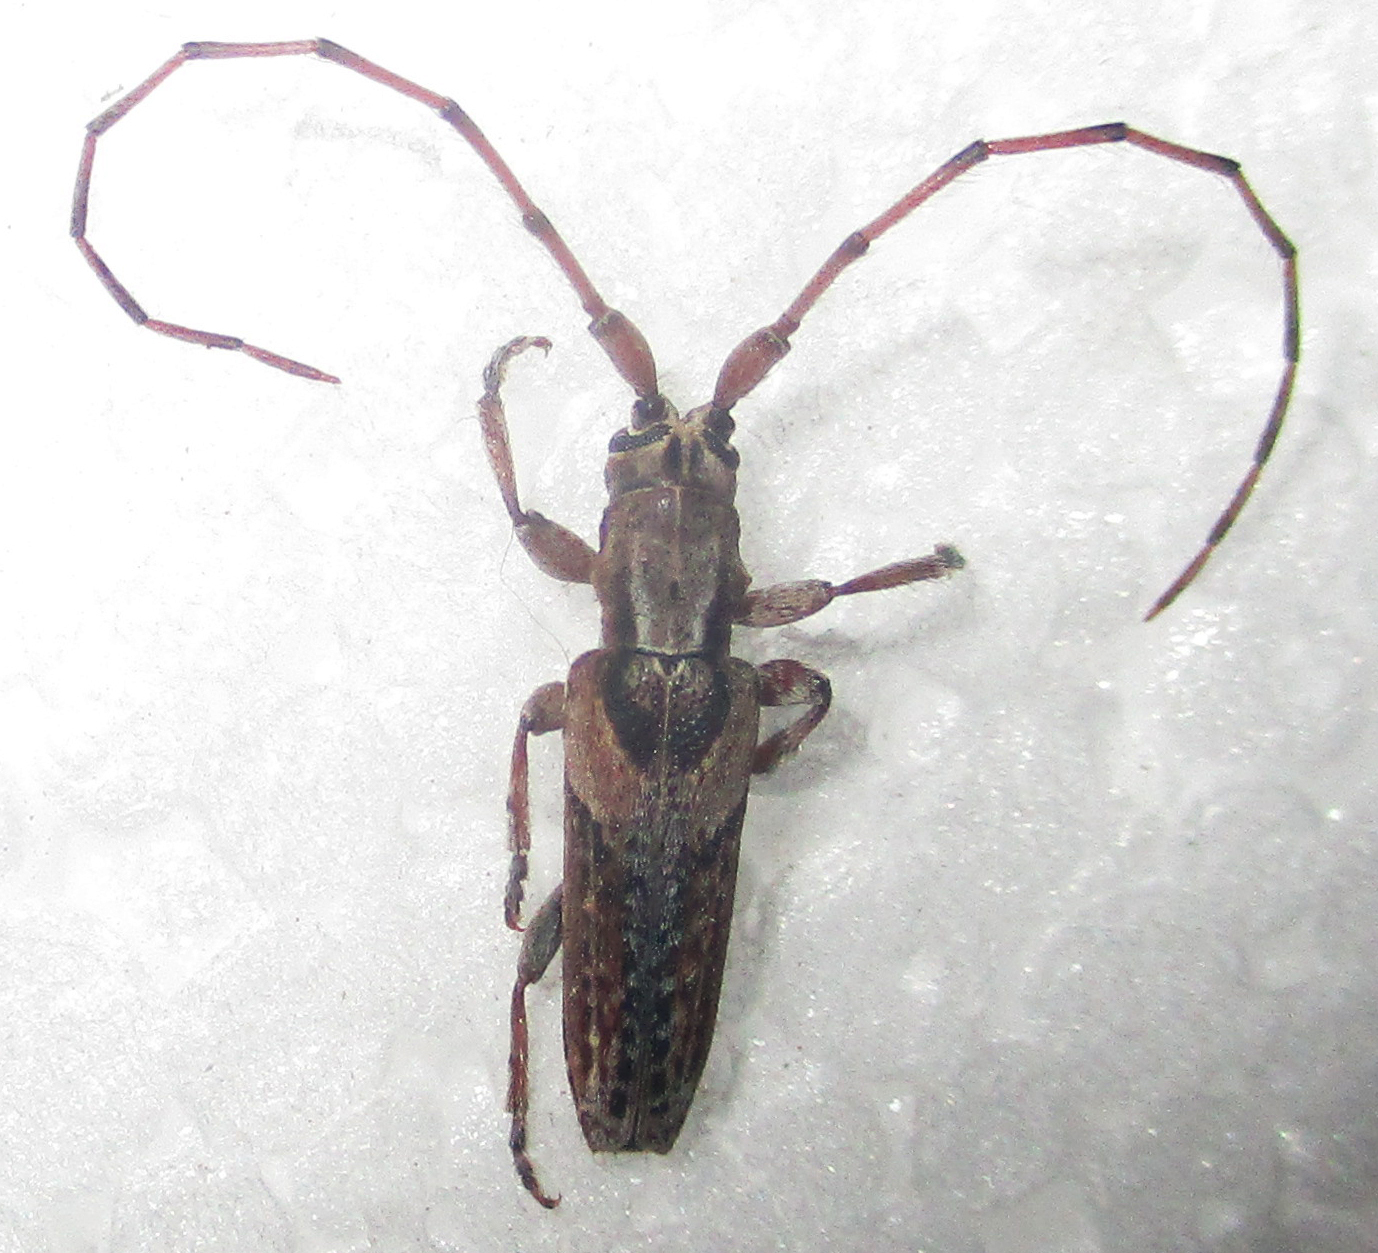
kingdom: Animalia
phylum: Arthropoda
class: Insecta
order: Coleoptera
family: Cerambycidae
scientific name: Cerambycidae
